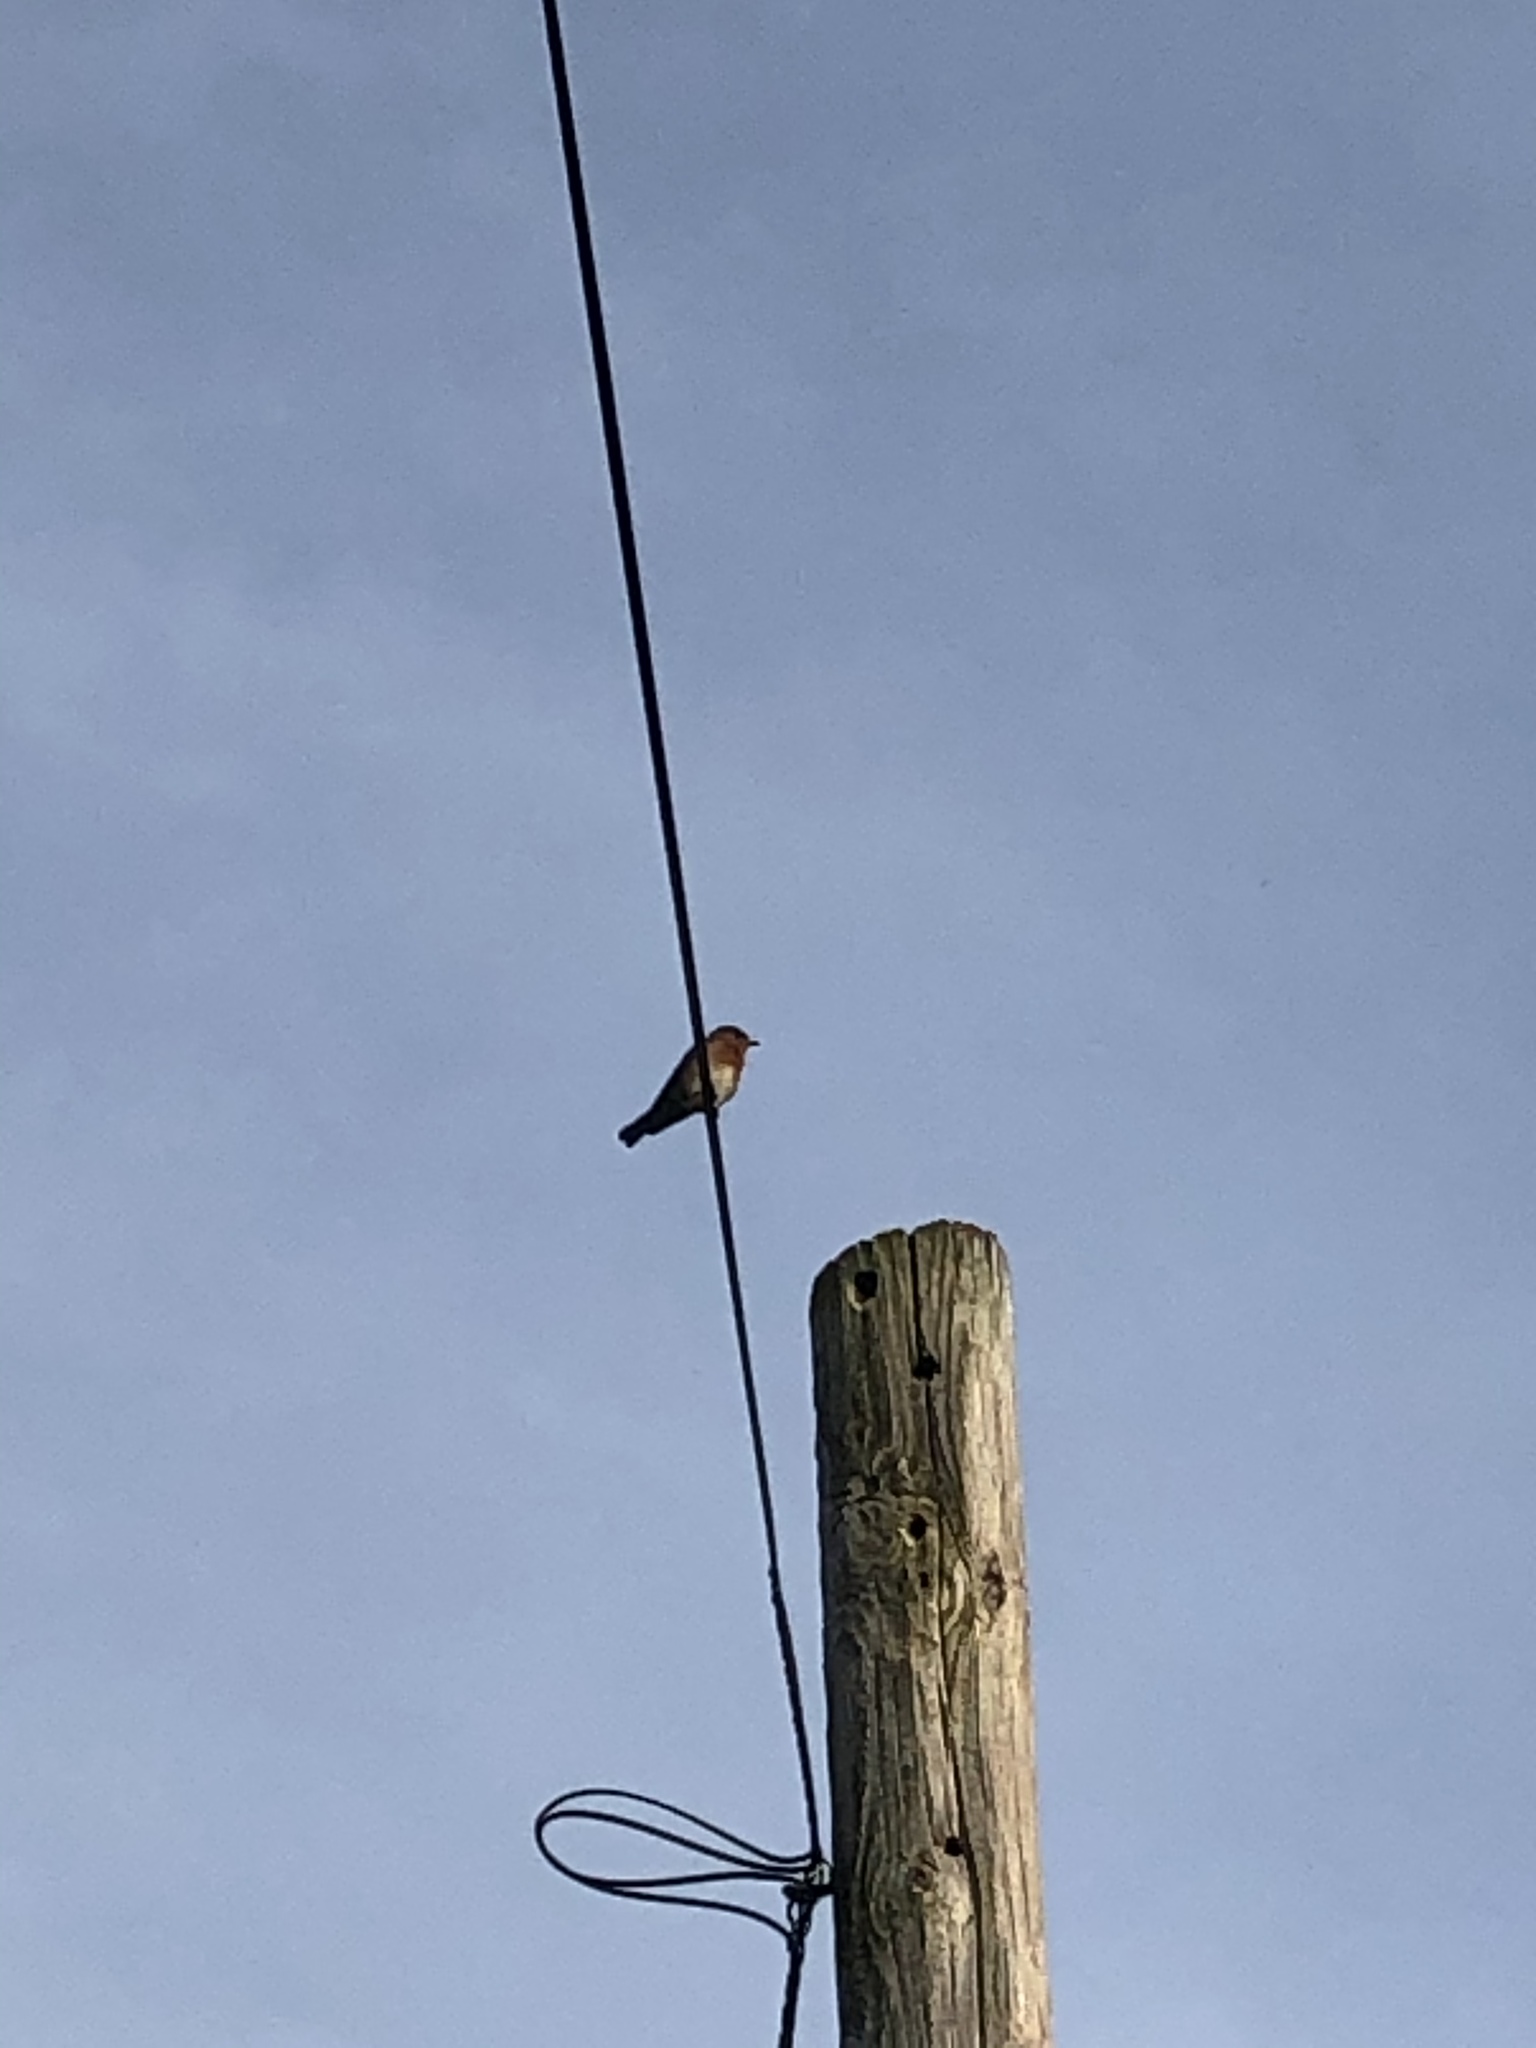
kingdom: Animalia
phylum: Chordata
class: Aves
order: Passeriformes
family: Turdidae
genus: Sialia
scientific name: Sialia sialis
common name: Eastern bluebird
